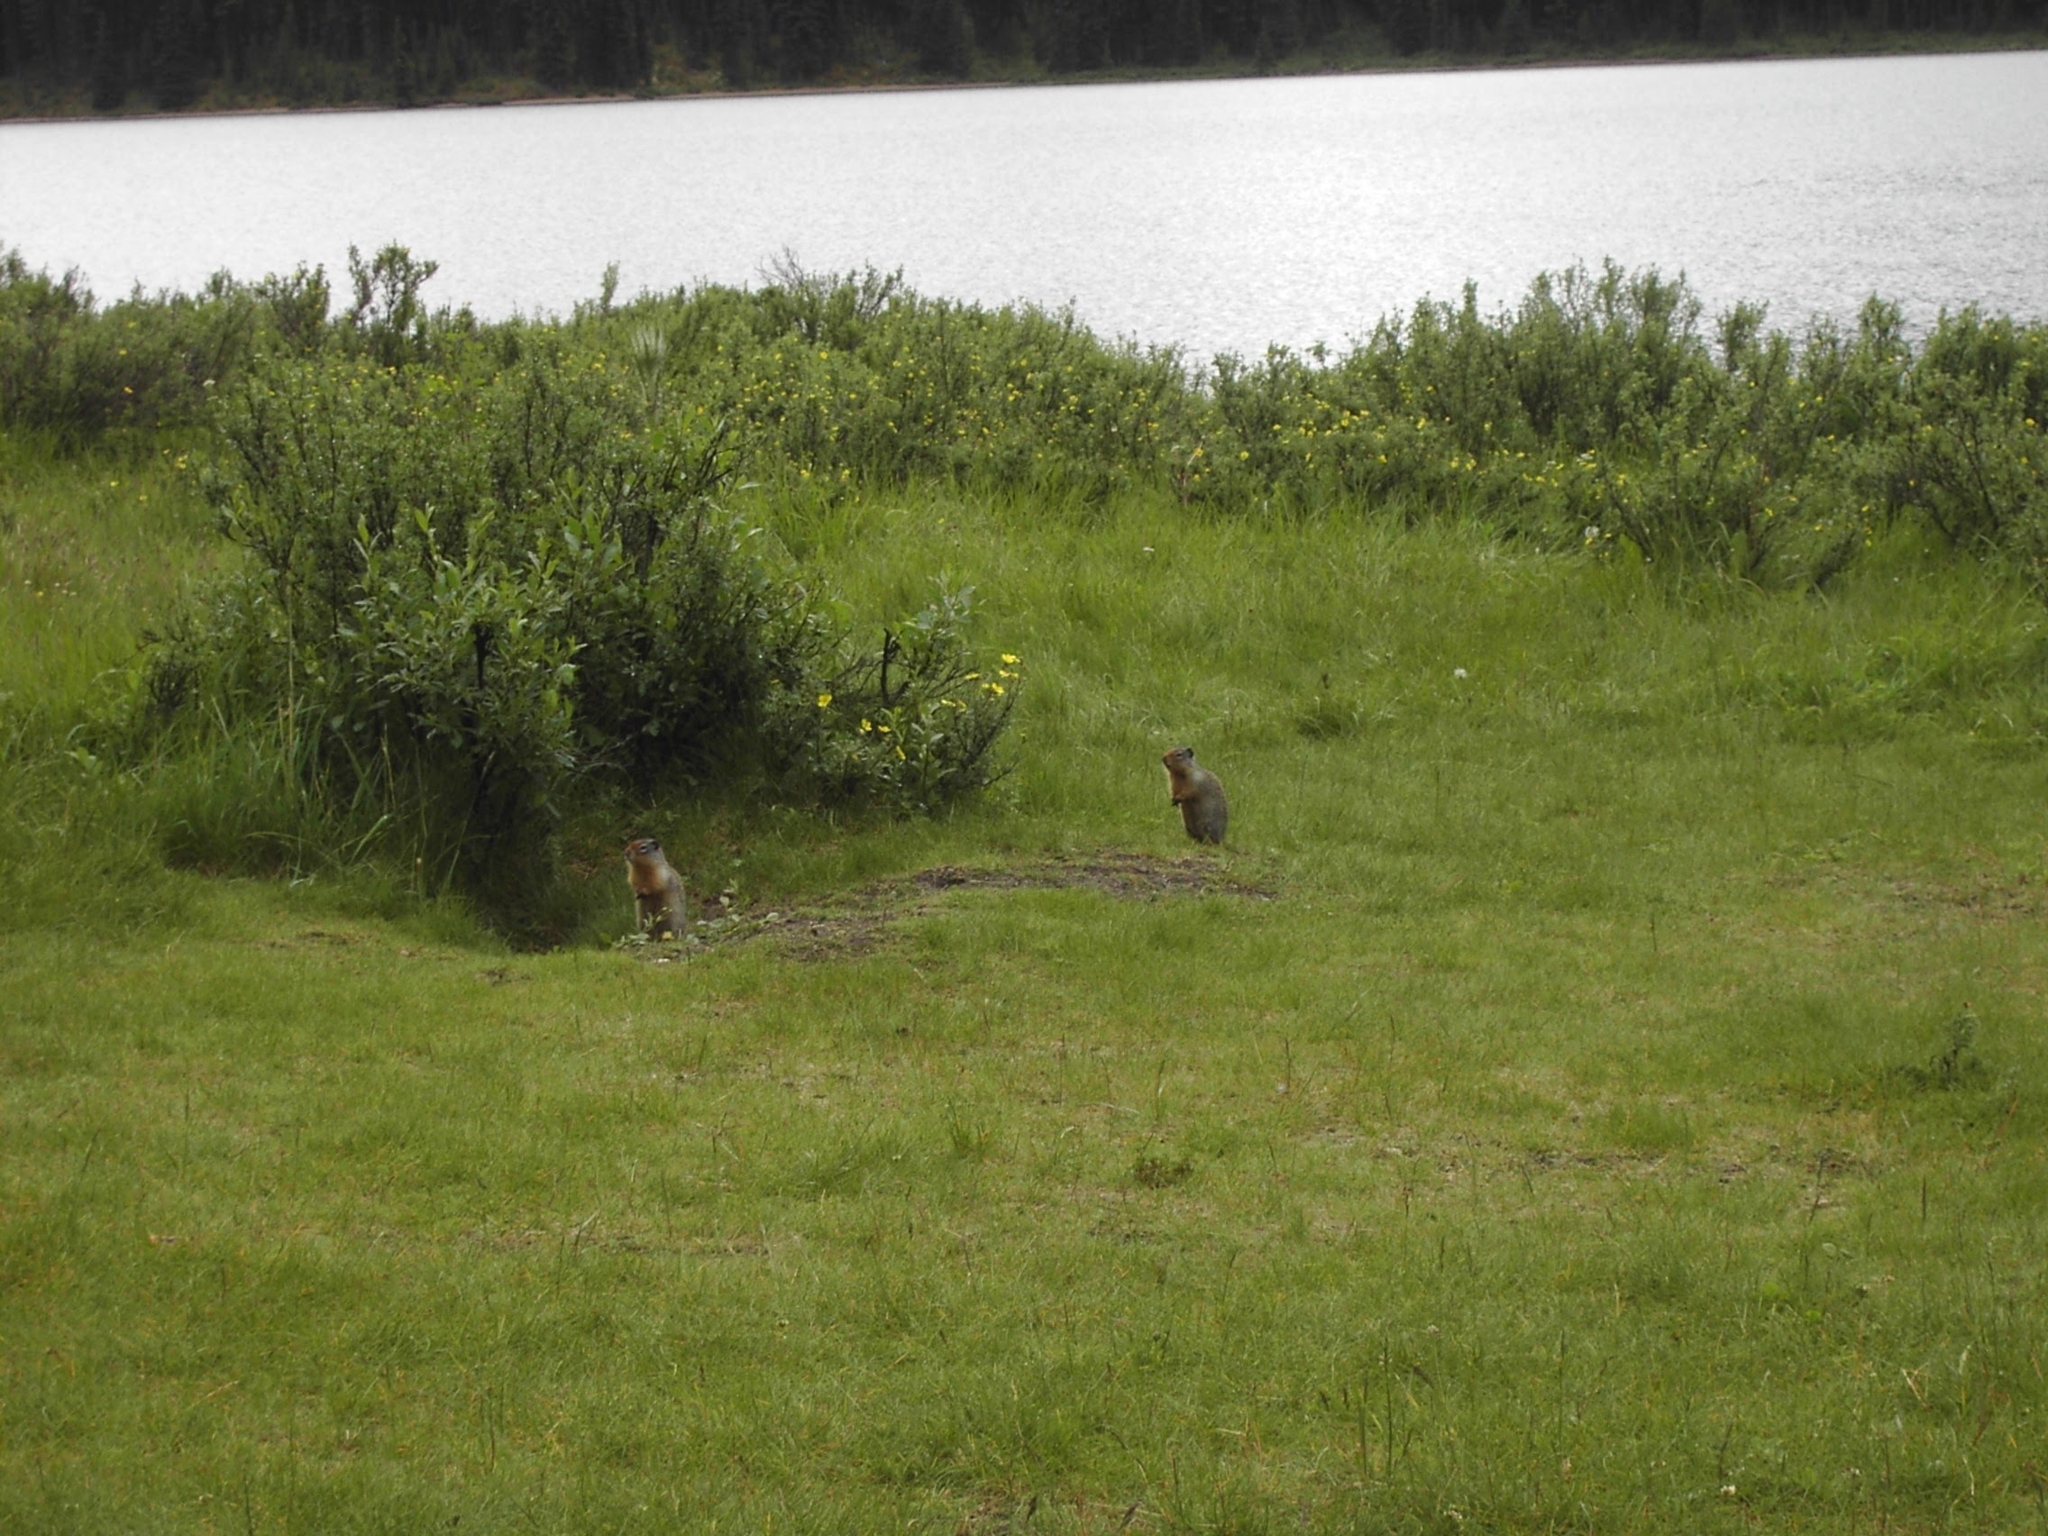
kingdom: Animalia
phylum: Chordata
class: Mammalia
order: Rodentia
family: Sciuridae
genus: Urocitellus
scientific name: Urocitellus columbianus
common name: Columbian ground squirrel
